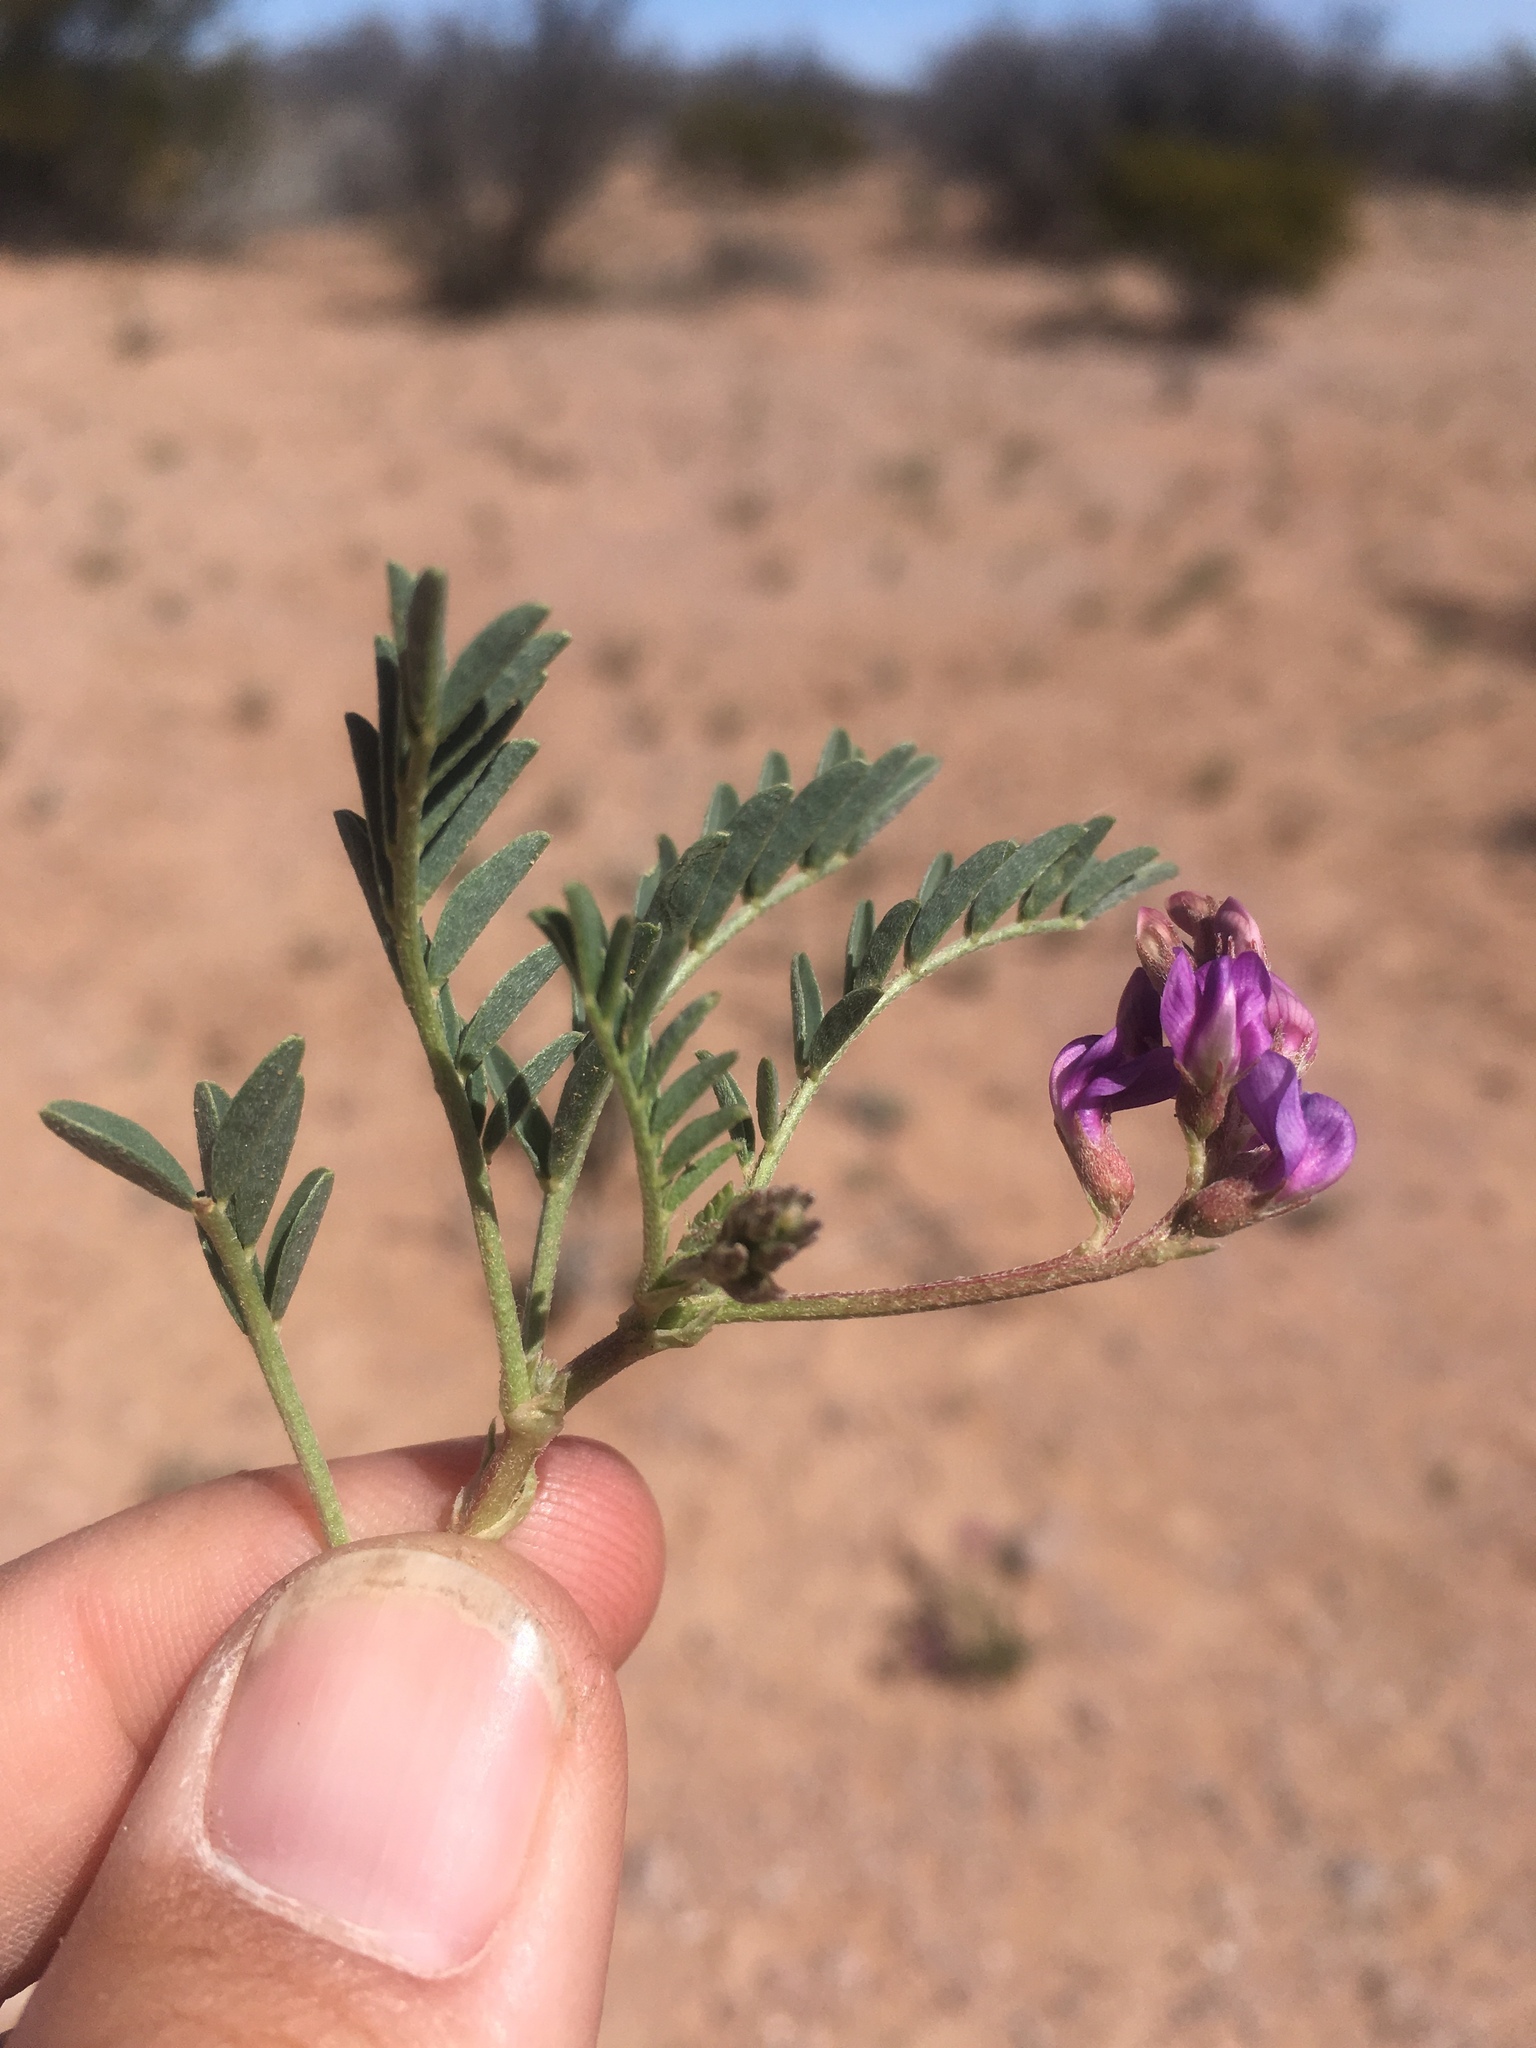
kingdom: Plantae
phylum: Tracheophyta
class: Magnoliopsida
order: Fabales
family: Fabaceae
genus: Astragalus
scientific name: Astragalus allochrous
